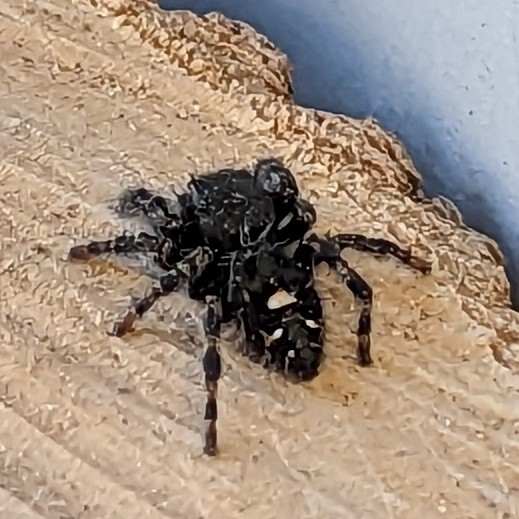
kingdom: Animalia
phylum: Arthropoda
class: Arachnida
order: Araneae
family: Salticidae
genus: Phidippus
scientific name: Phidippus audax
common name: Bold jumper
